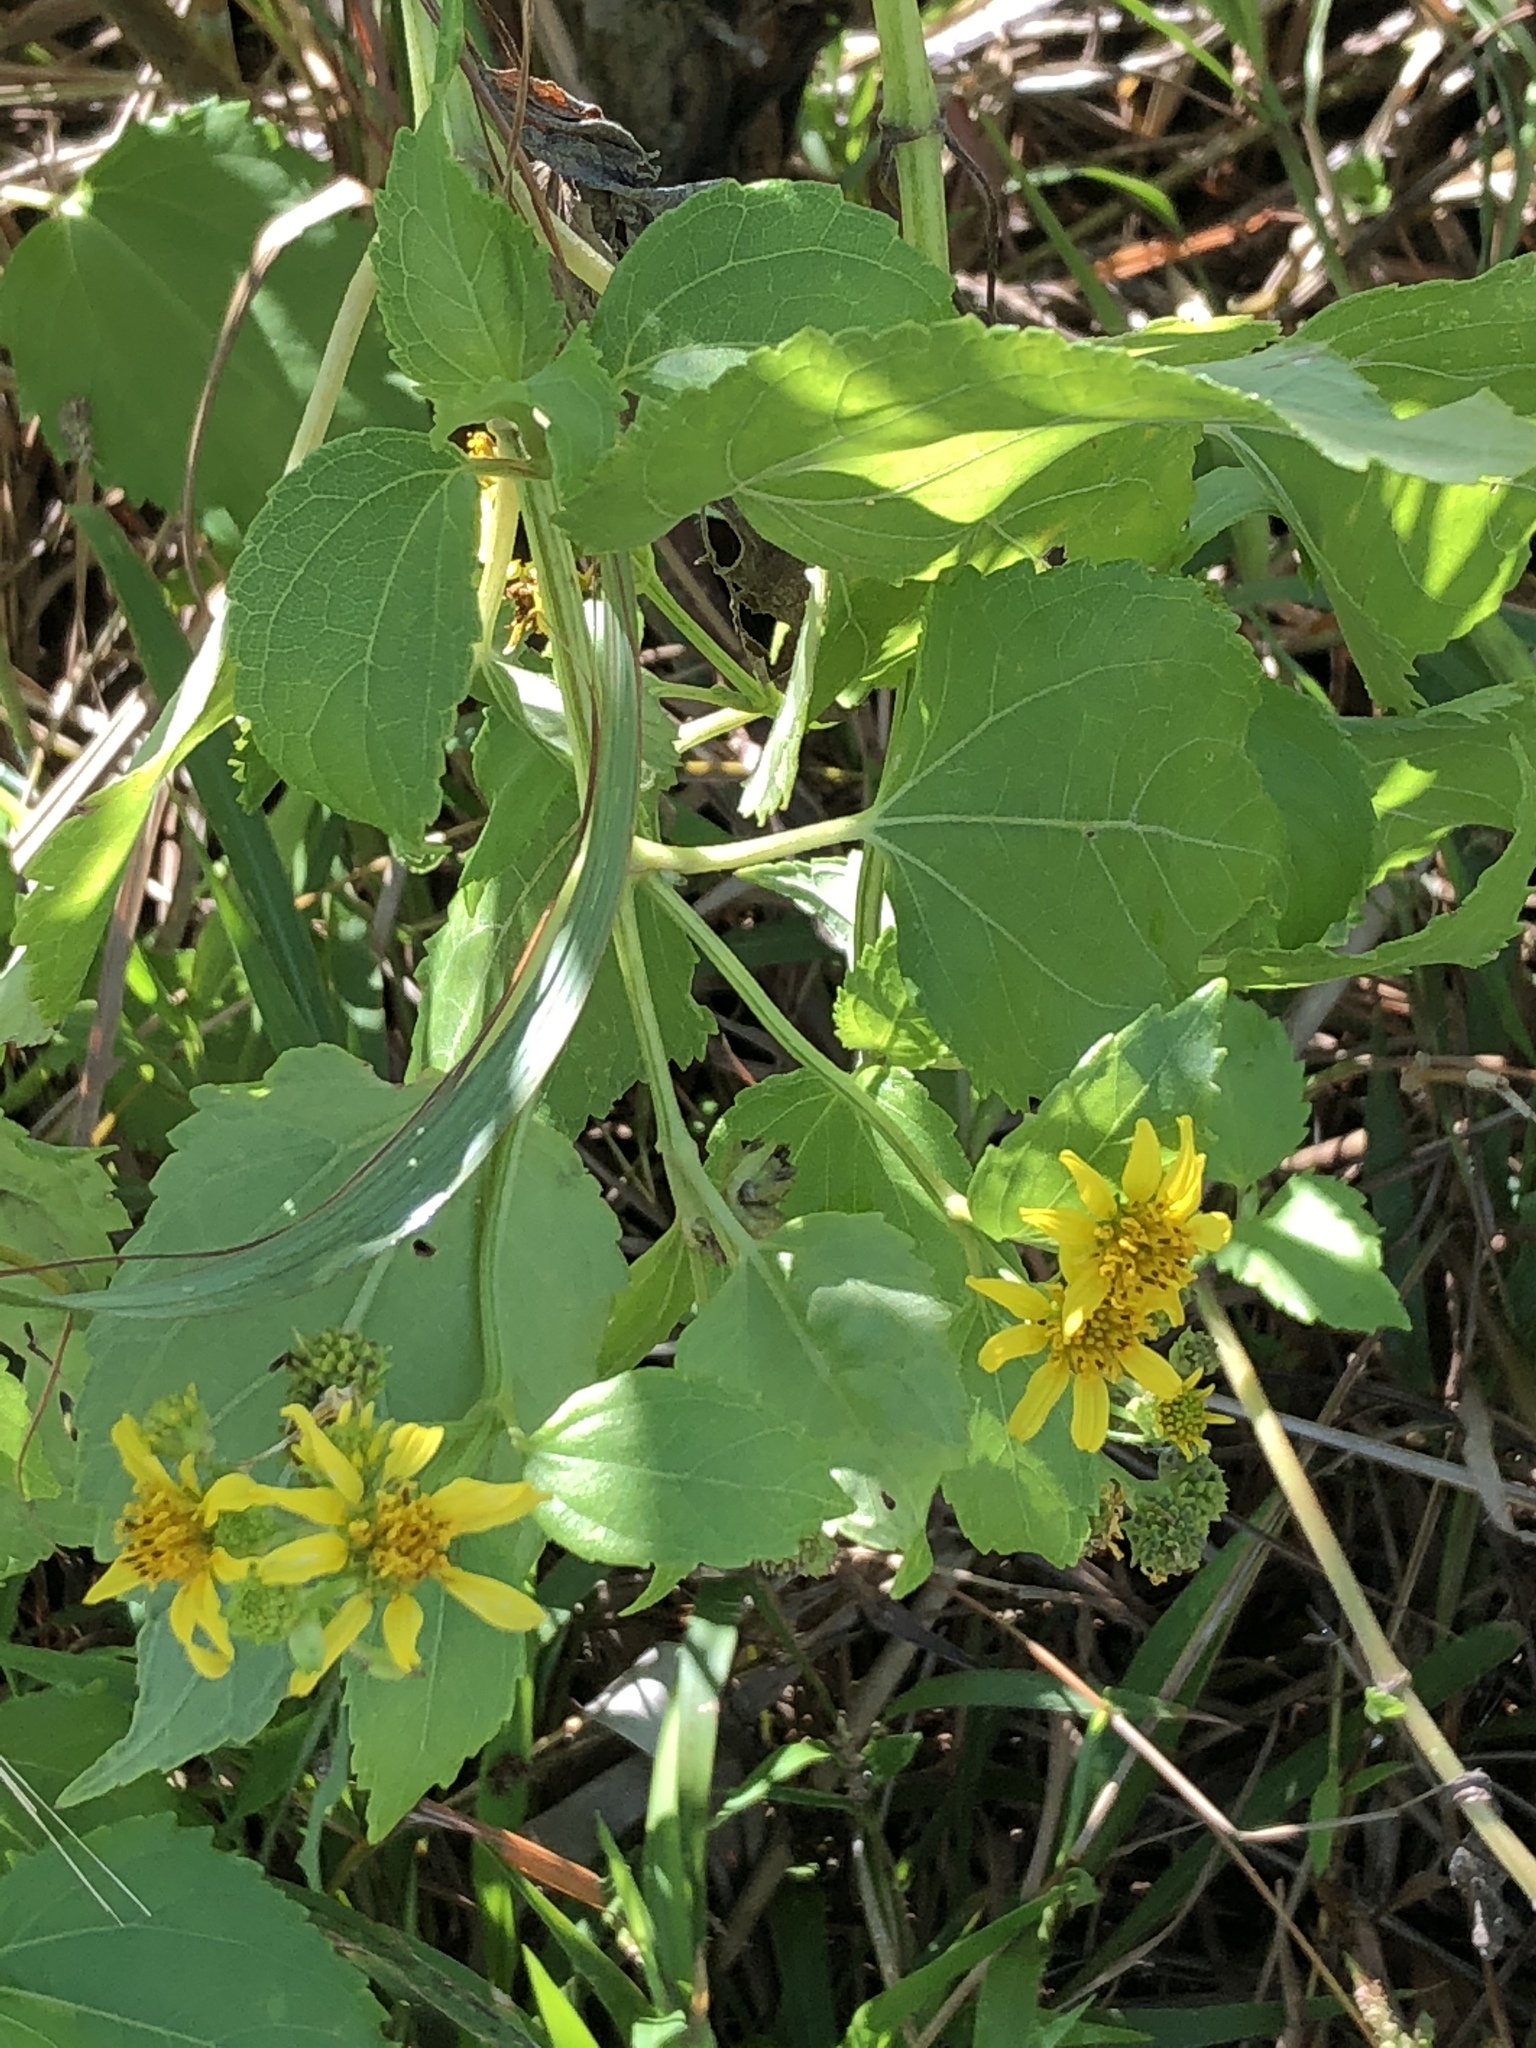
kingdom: Plantae
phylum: Tracheophyta
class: Magnoliopsida
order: Asterales
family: Asteraceae
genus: Wollastonia
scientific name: Wollastonia biflora
